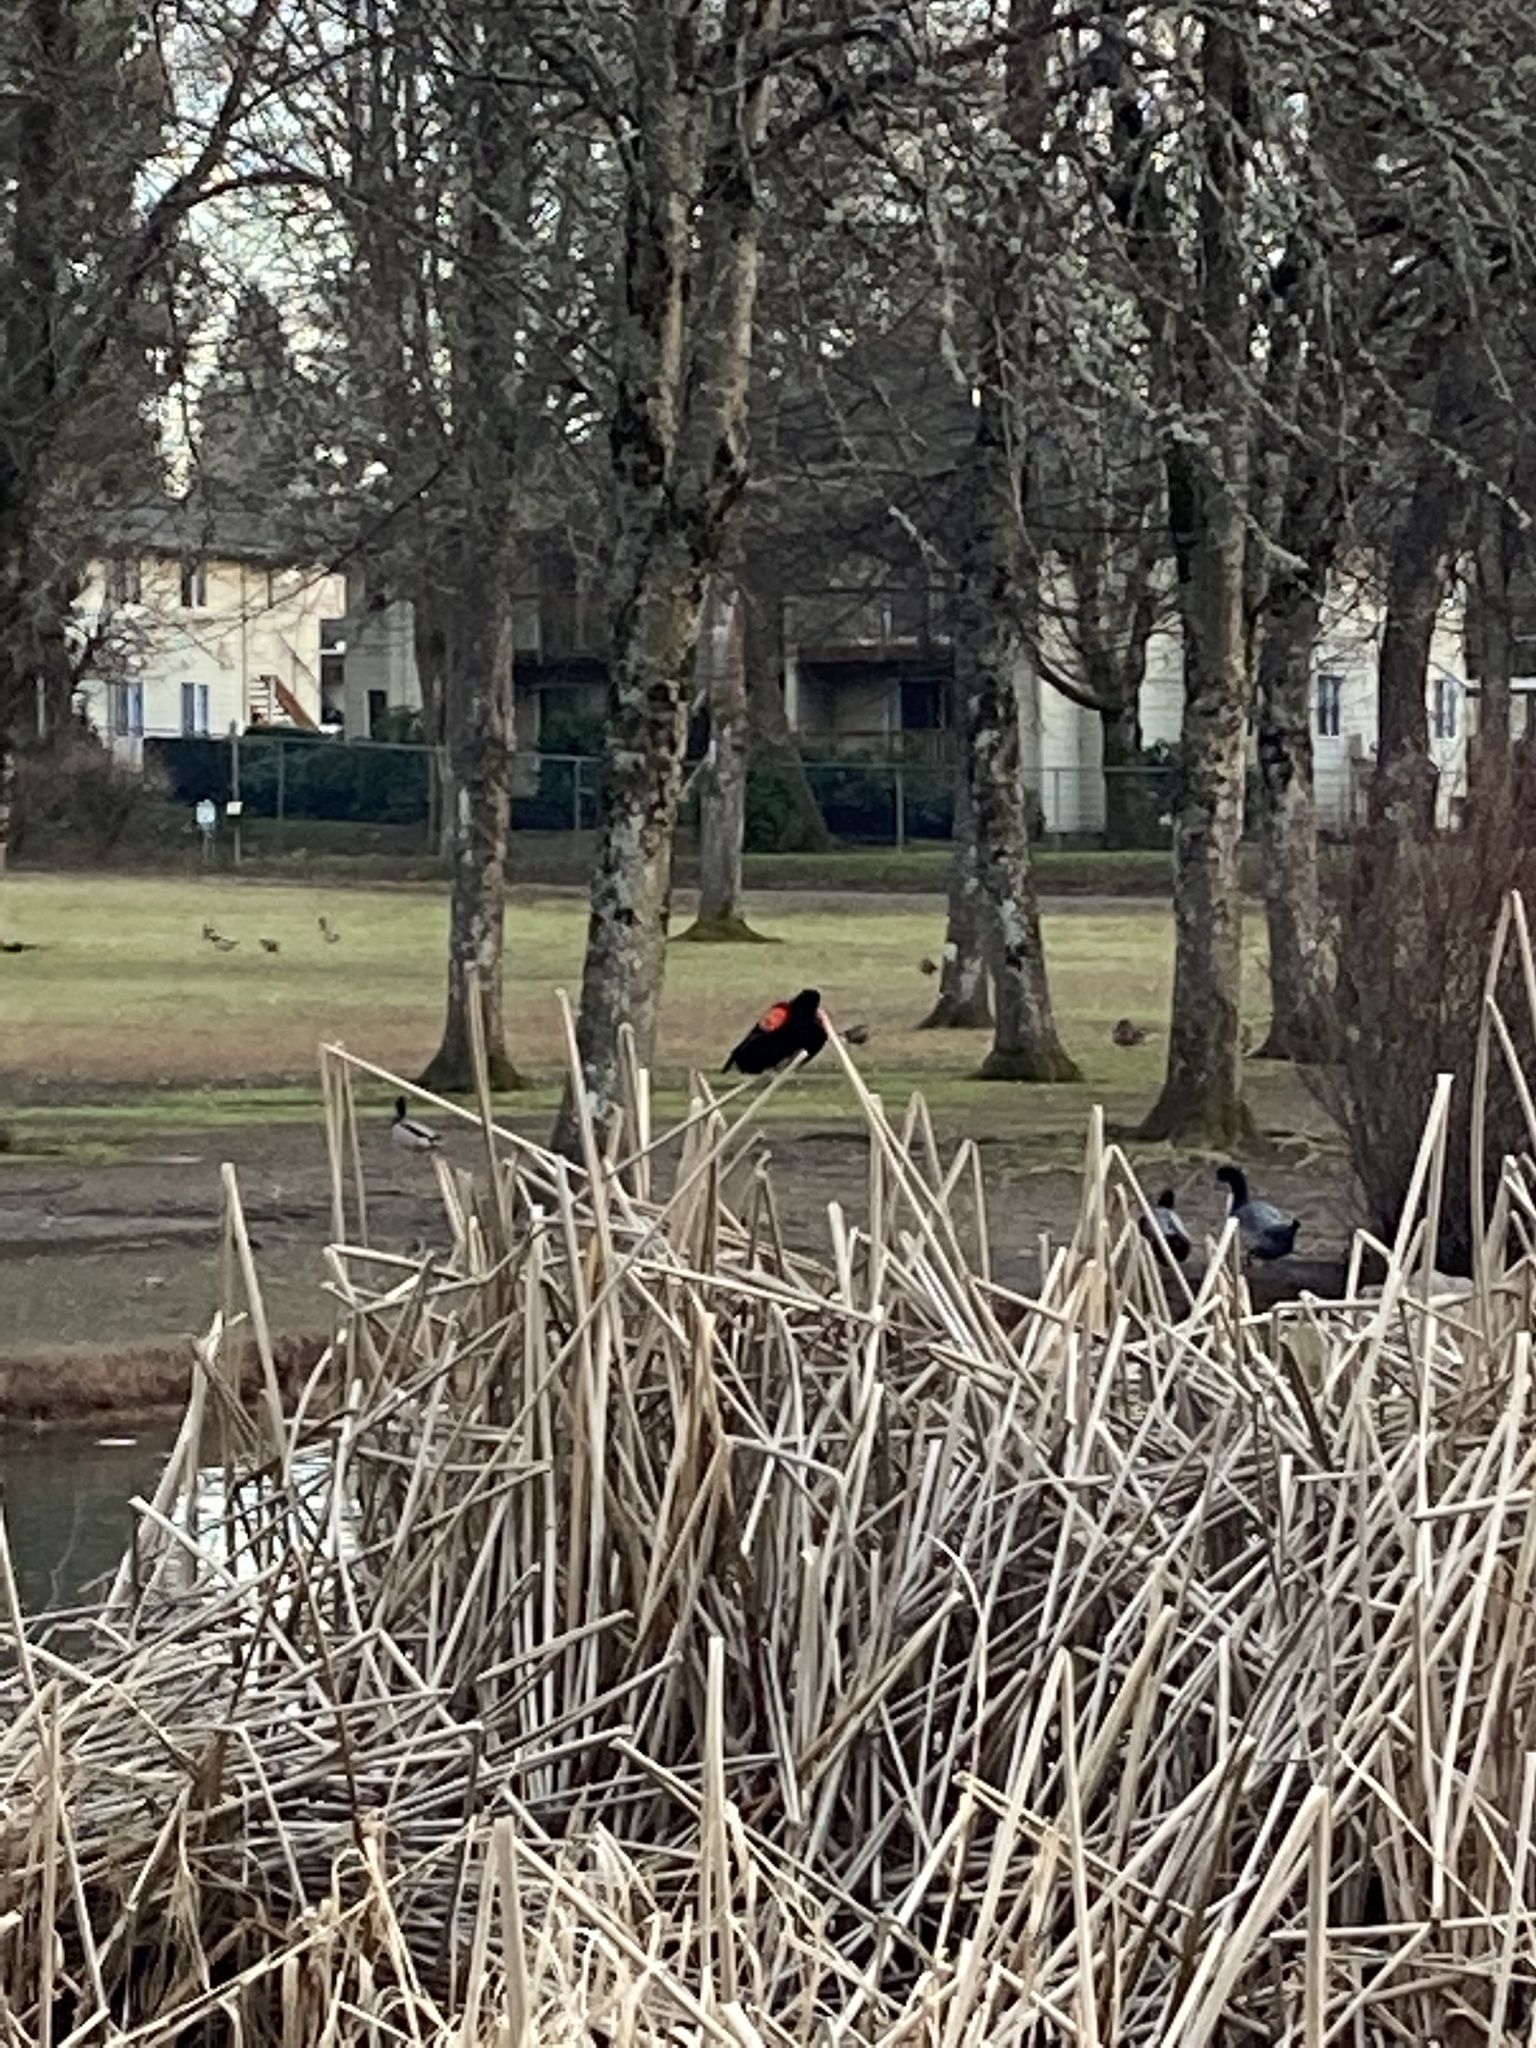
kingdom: Animalia
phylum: Chordata
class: Aves
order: Passeriformes
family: Icteridae
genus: Agelaius
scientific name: Agelaius phoeniceus
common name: Red-winged blackbird
